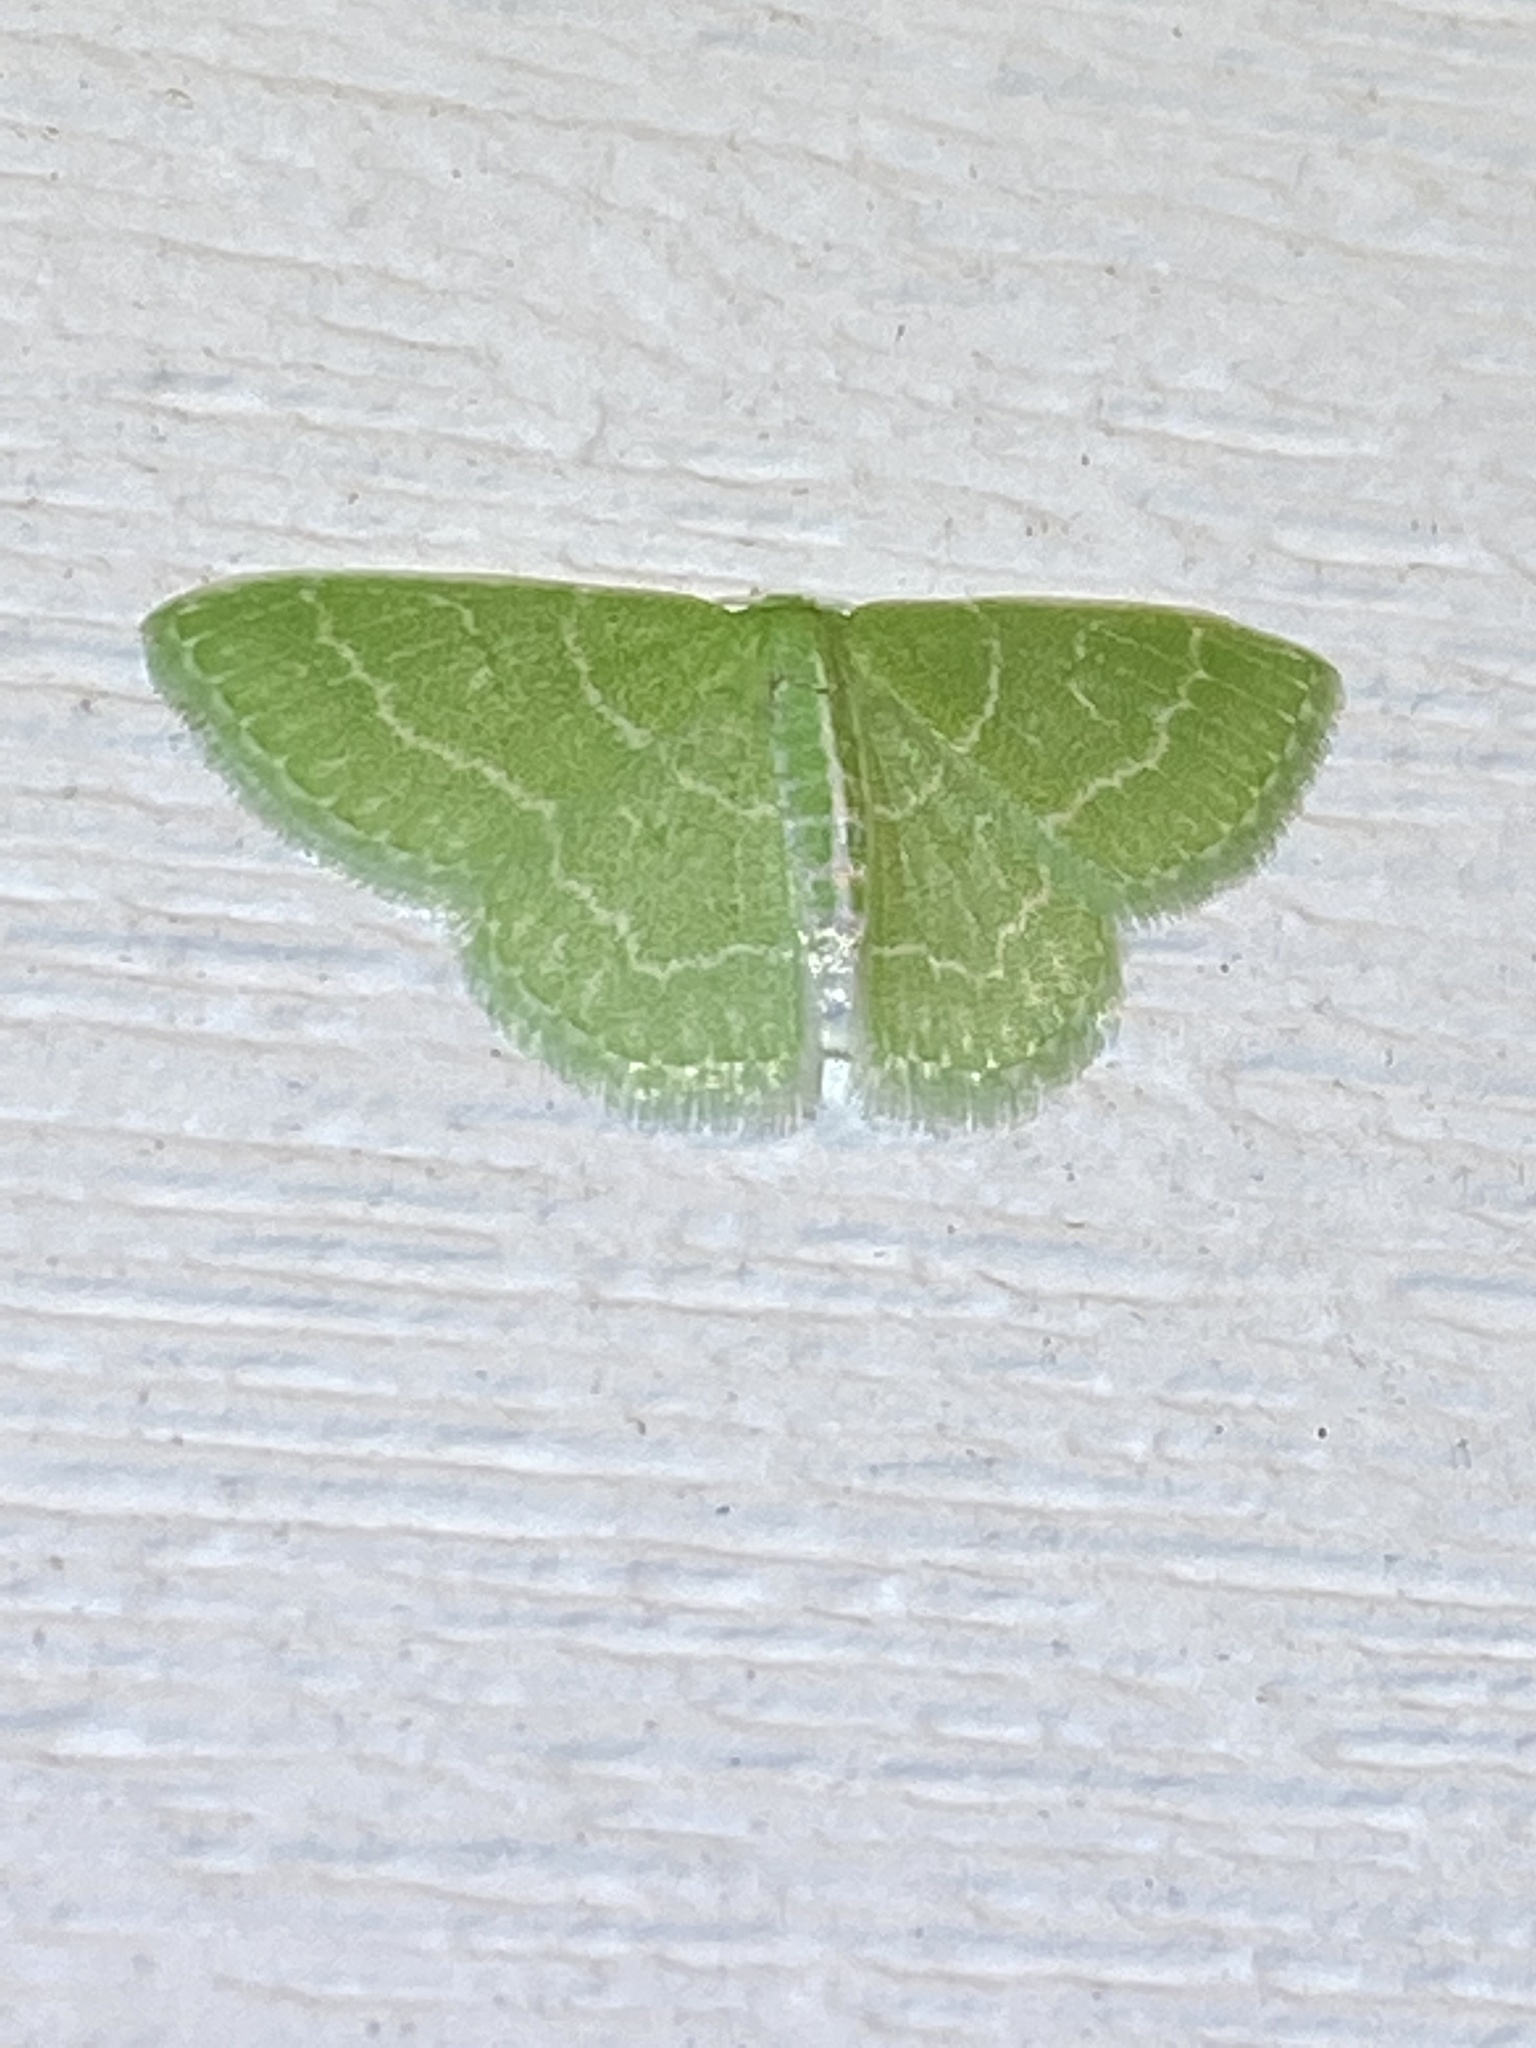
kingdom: Animalia
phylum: Arthropoda
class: Insecta
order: Lepidoptera
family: Geometridae
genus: Synchlora
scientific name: Synchlora aerata
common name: Wavy-lined emerald
